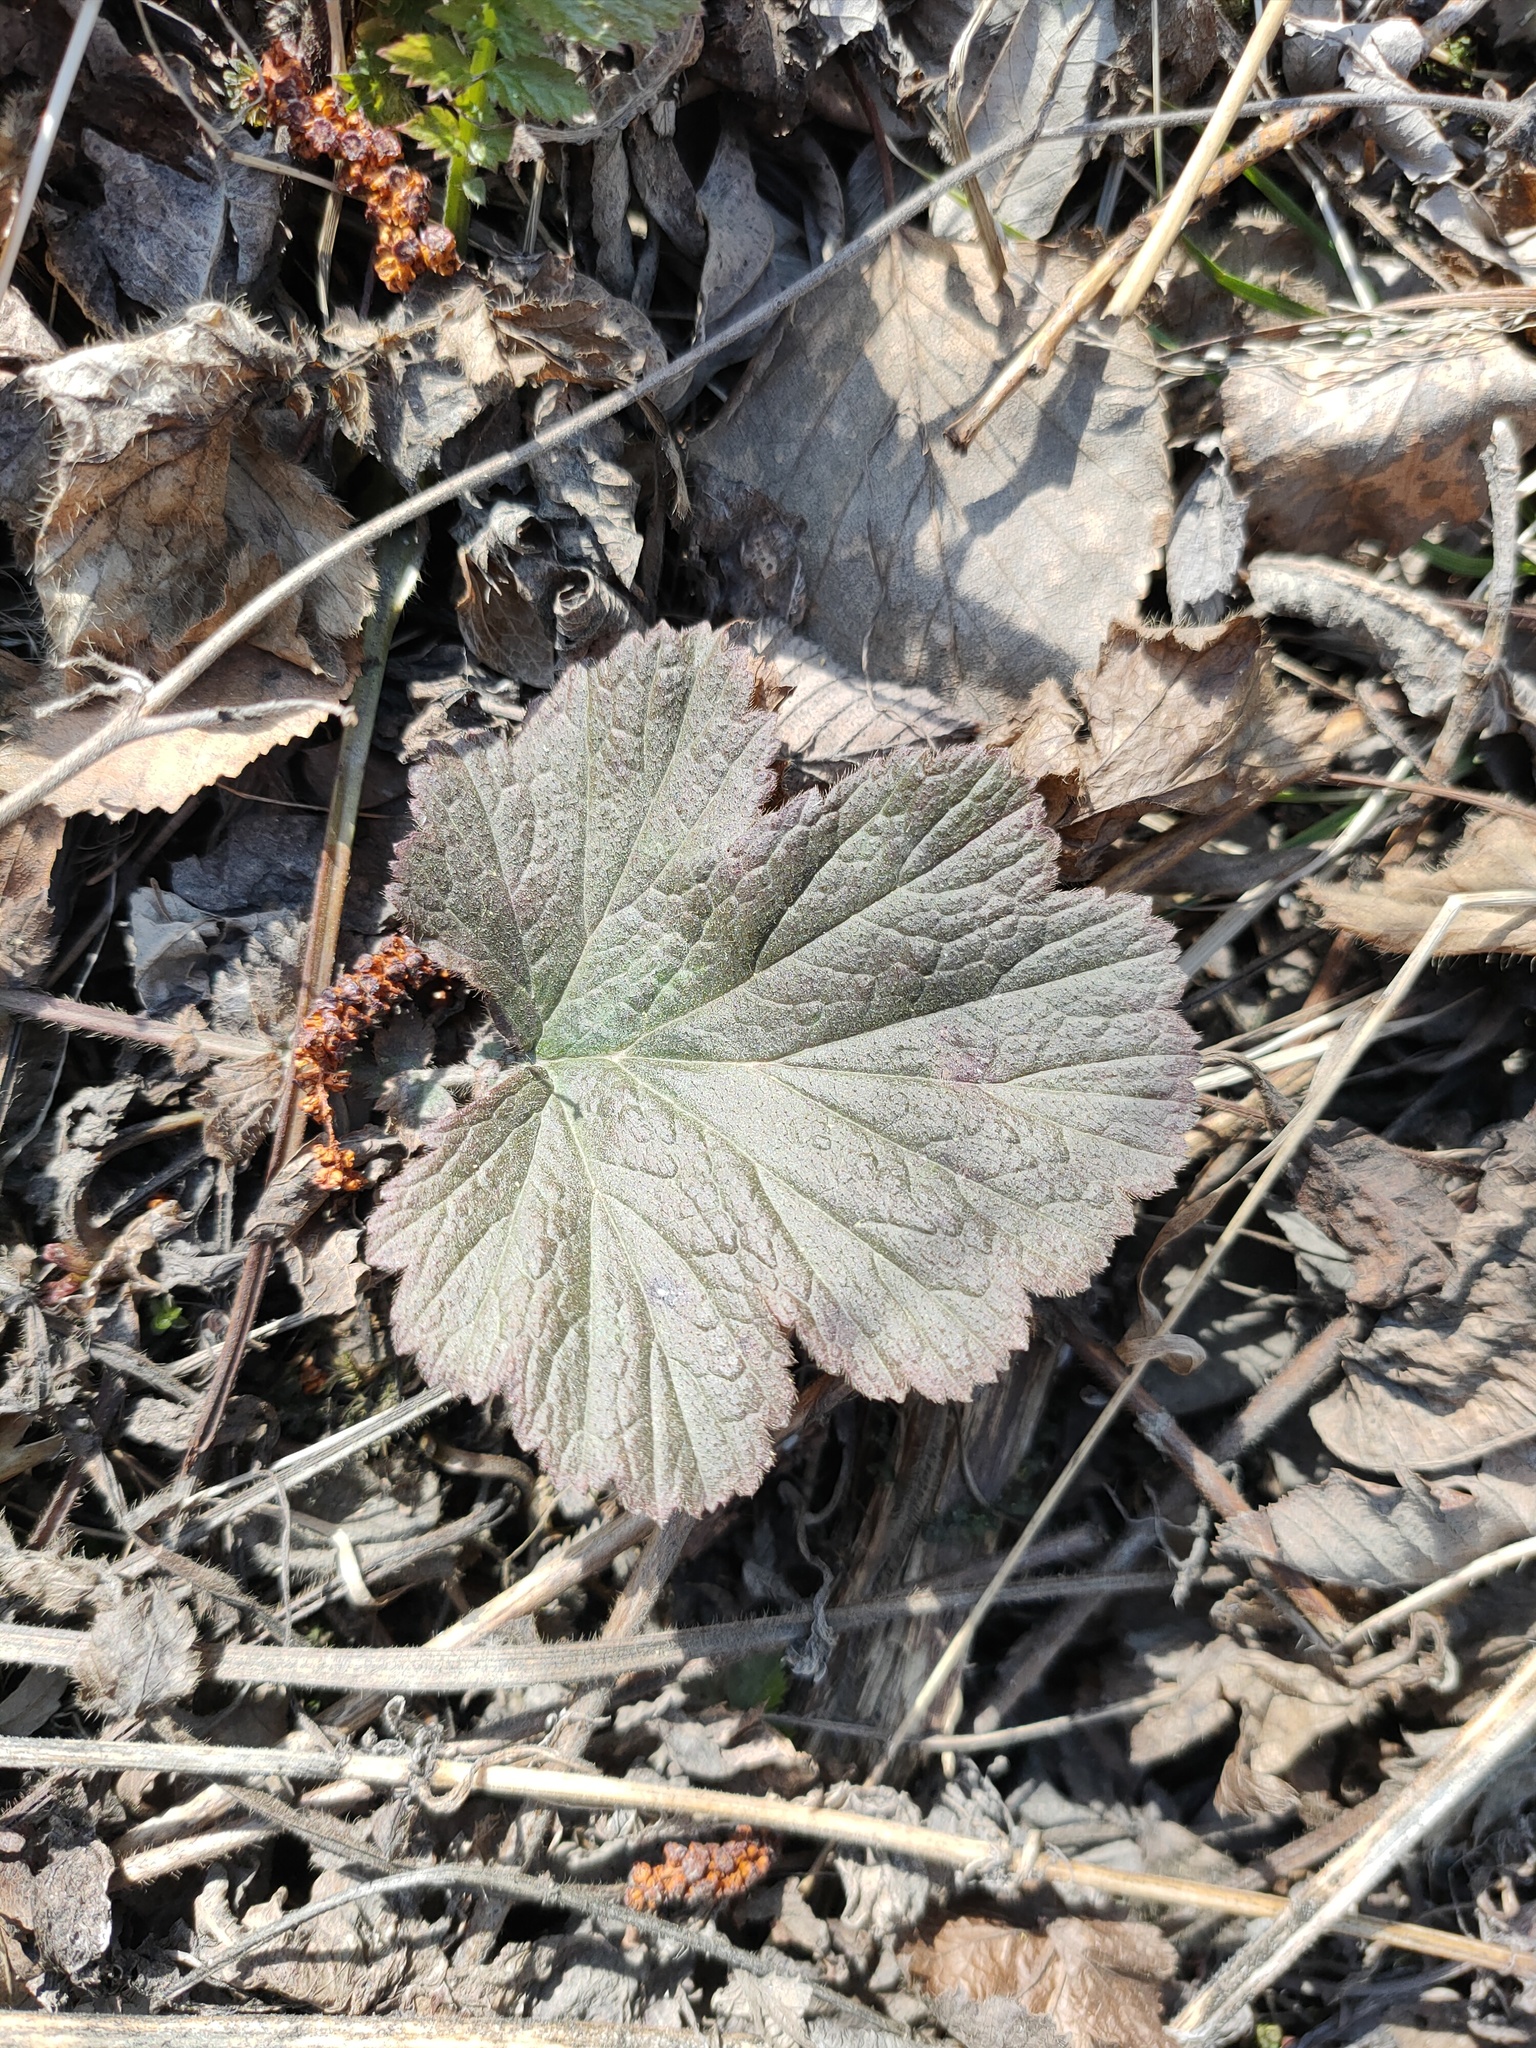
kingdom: Plantae
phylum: Tracheophyta
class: Magnoliopsida
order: Rosales
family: Rosaceae
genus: Geum
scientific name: Geum
